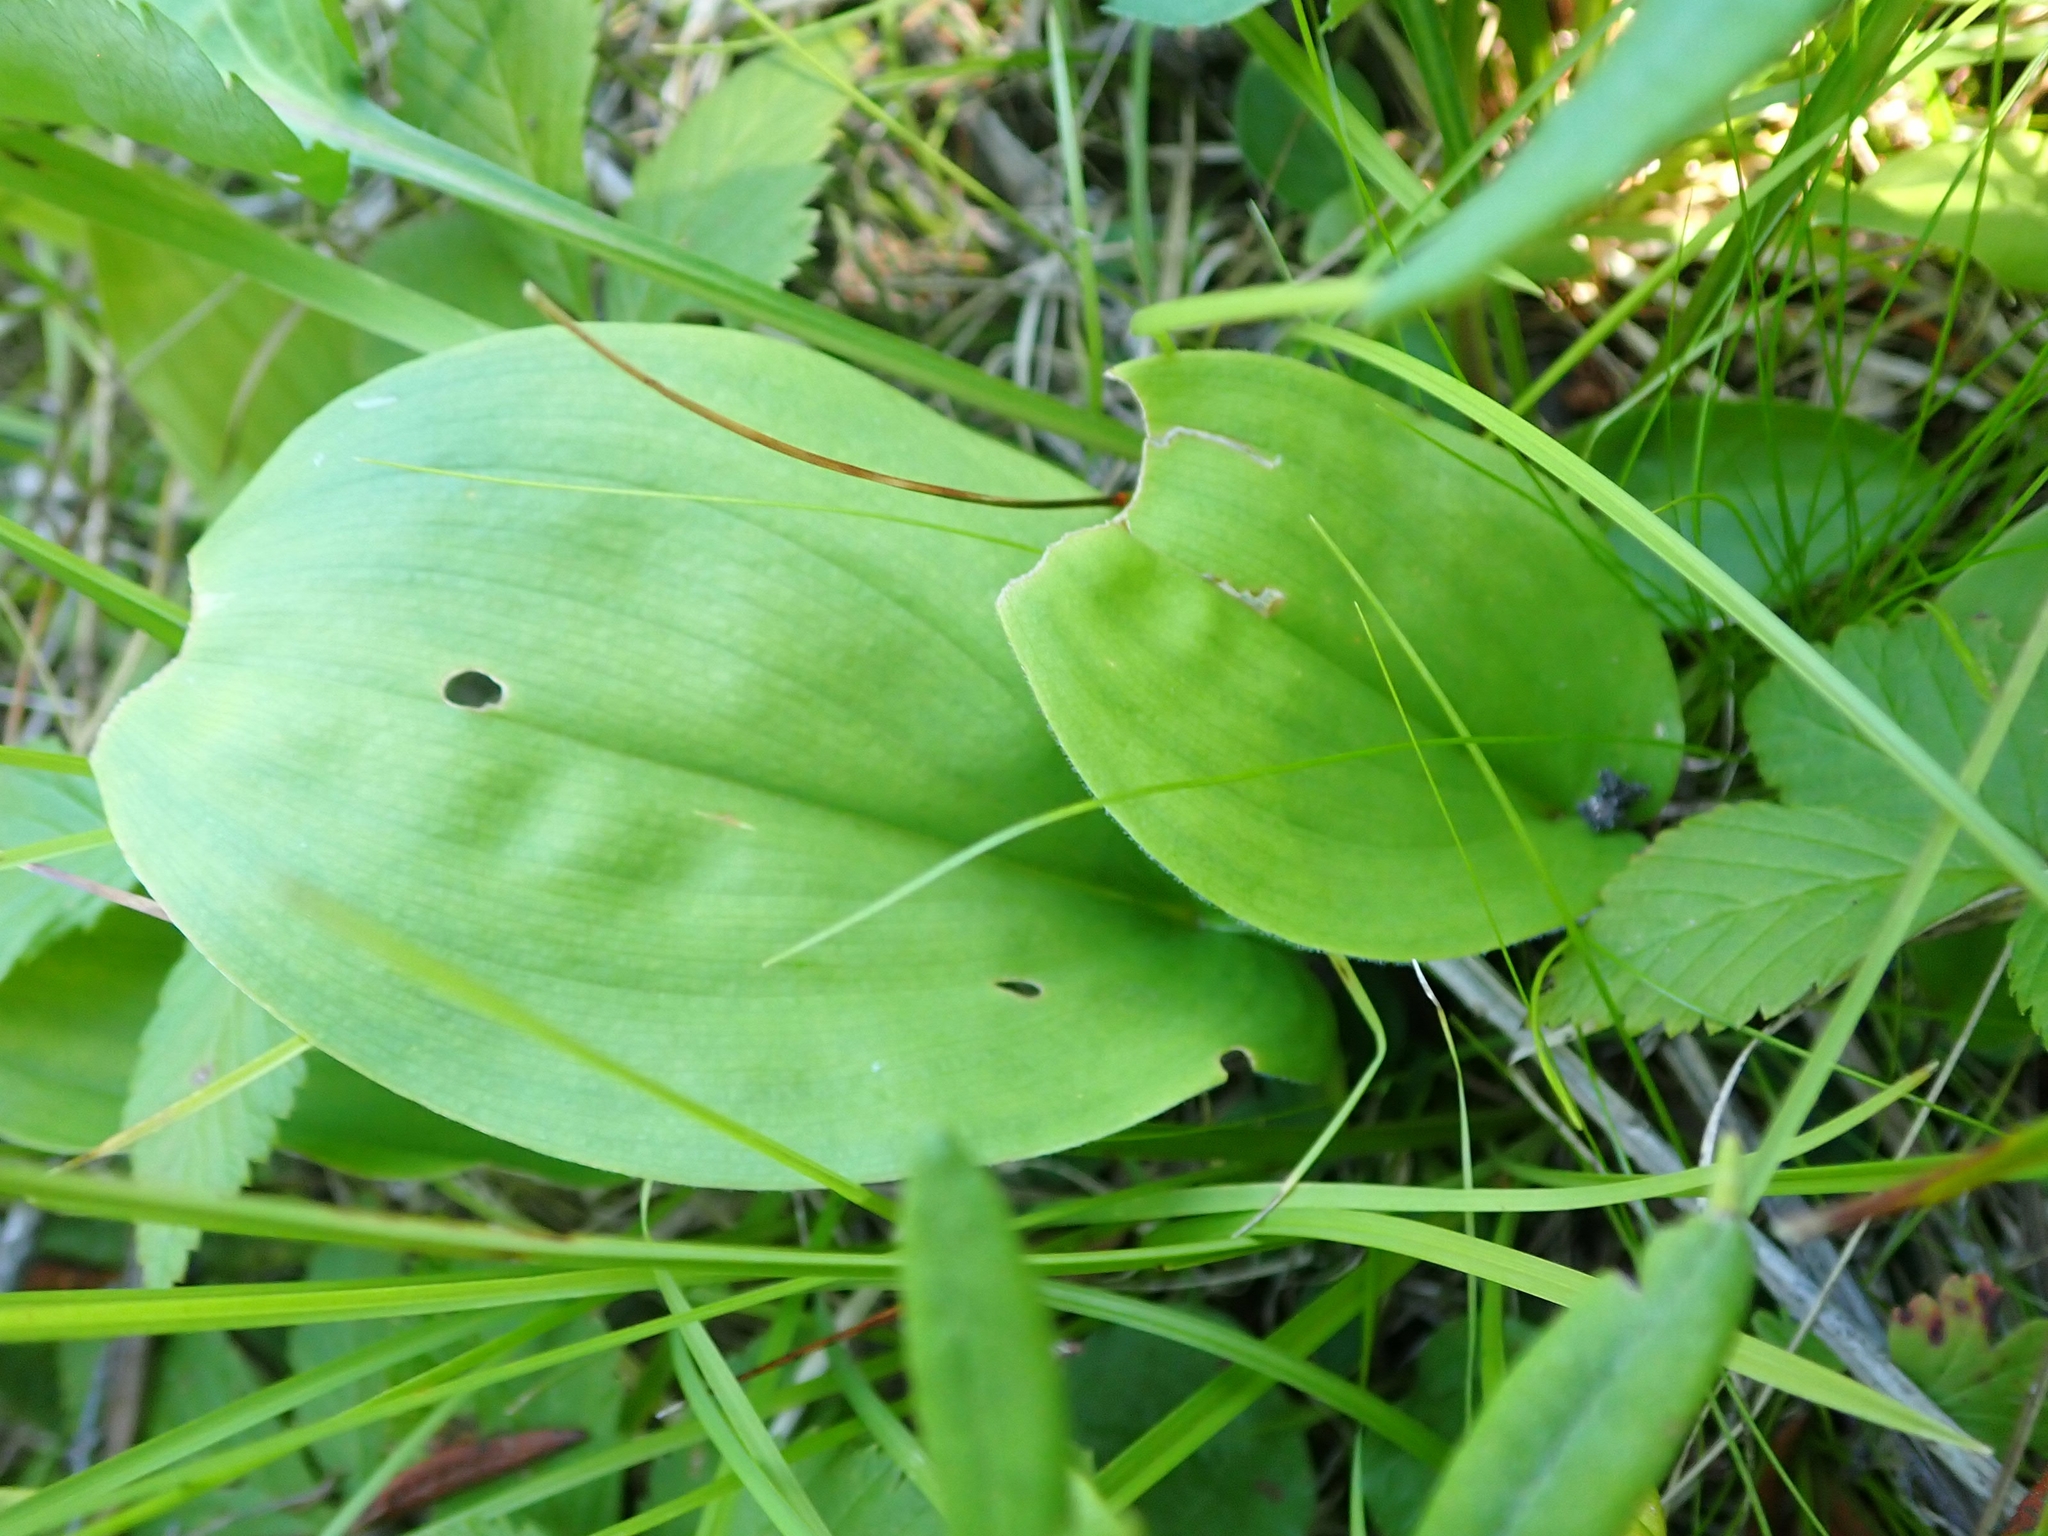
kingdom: Plantae
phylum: Tracheophyta
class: Liliopsida
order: Asparagales
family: Asparagaceae
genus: Maianthemum
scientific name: Maianthemum canadense
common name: False lily-of-the-valley
